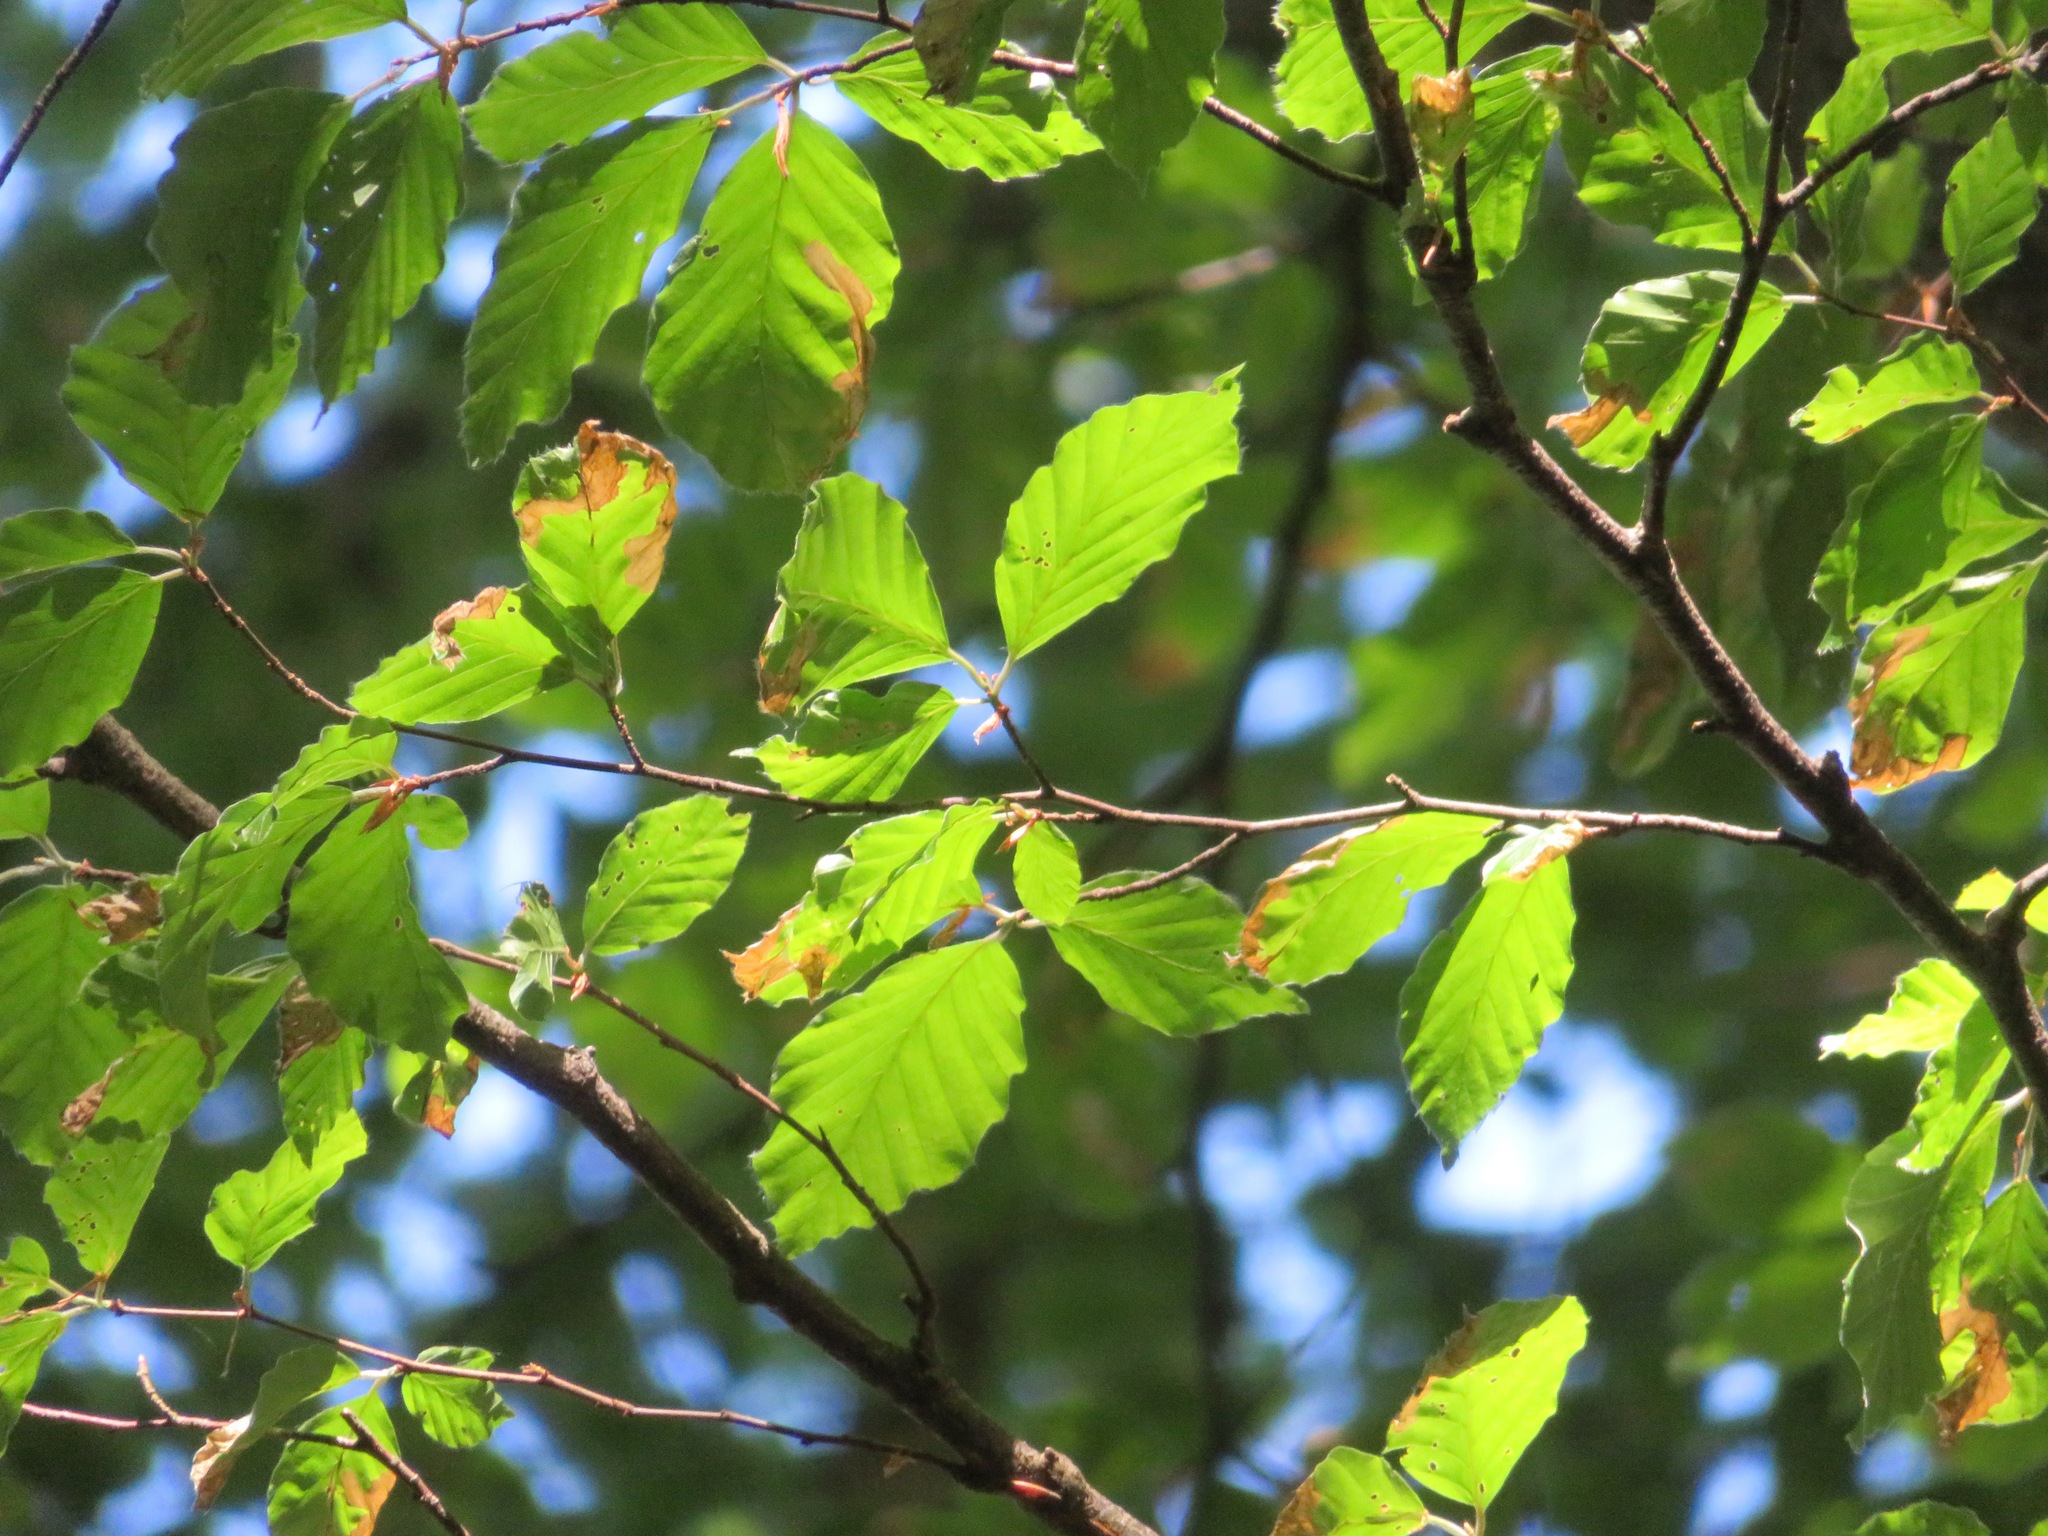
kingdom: Plantae
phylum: Tracheophyta
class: Magnoliopsida
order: Fagales
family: Fagaceae
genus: Fagus
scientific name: Fagus sylvatica
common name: Beech
